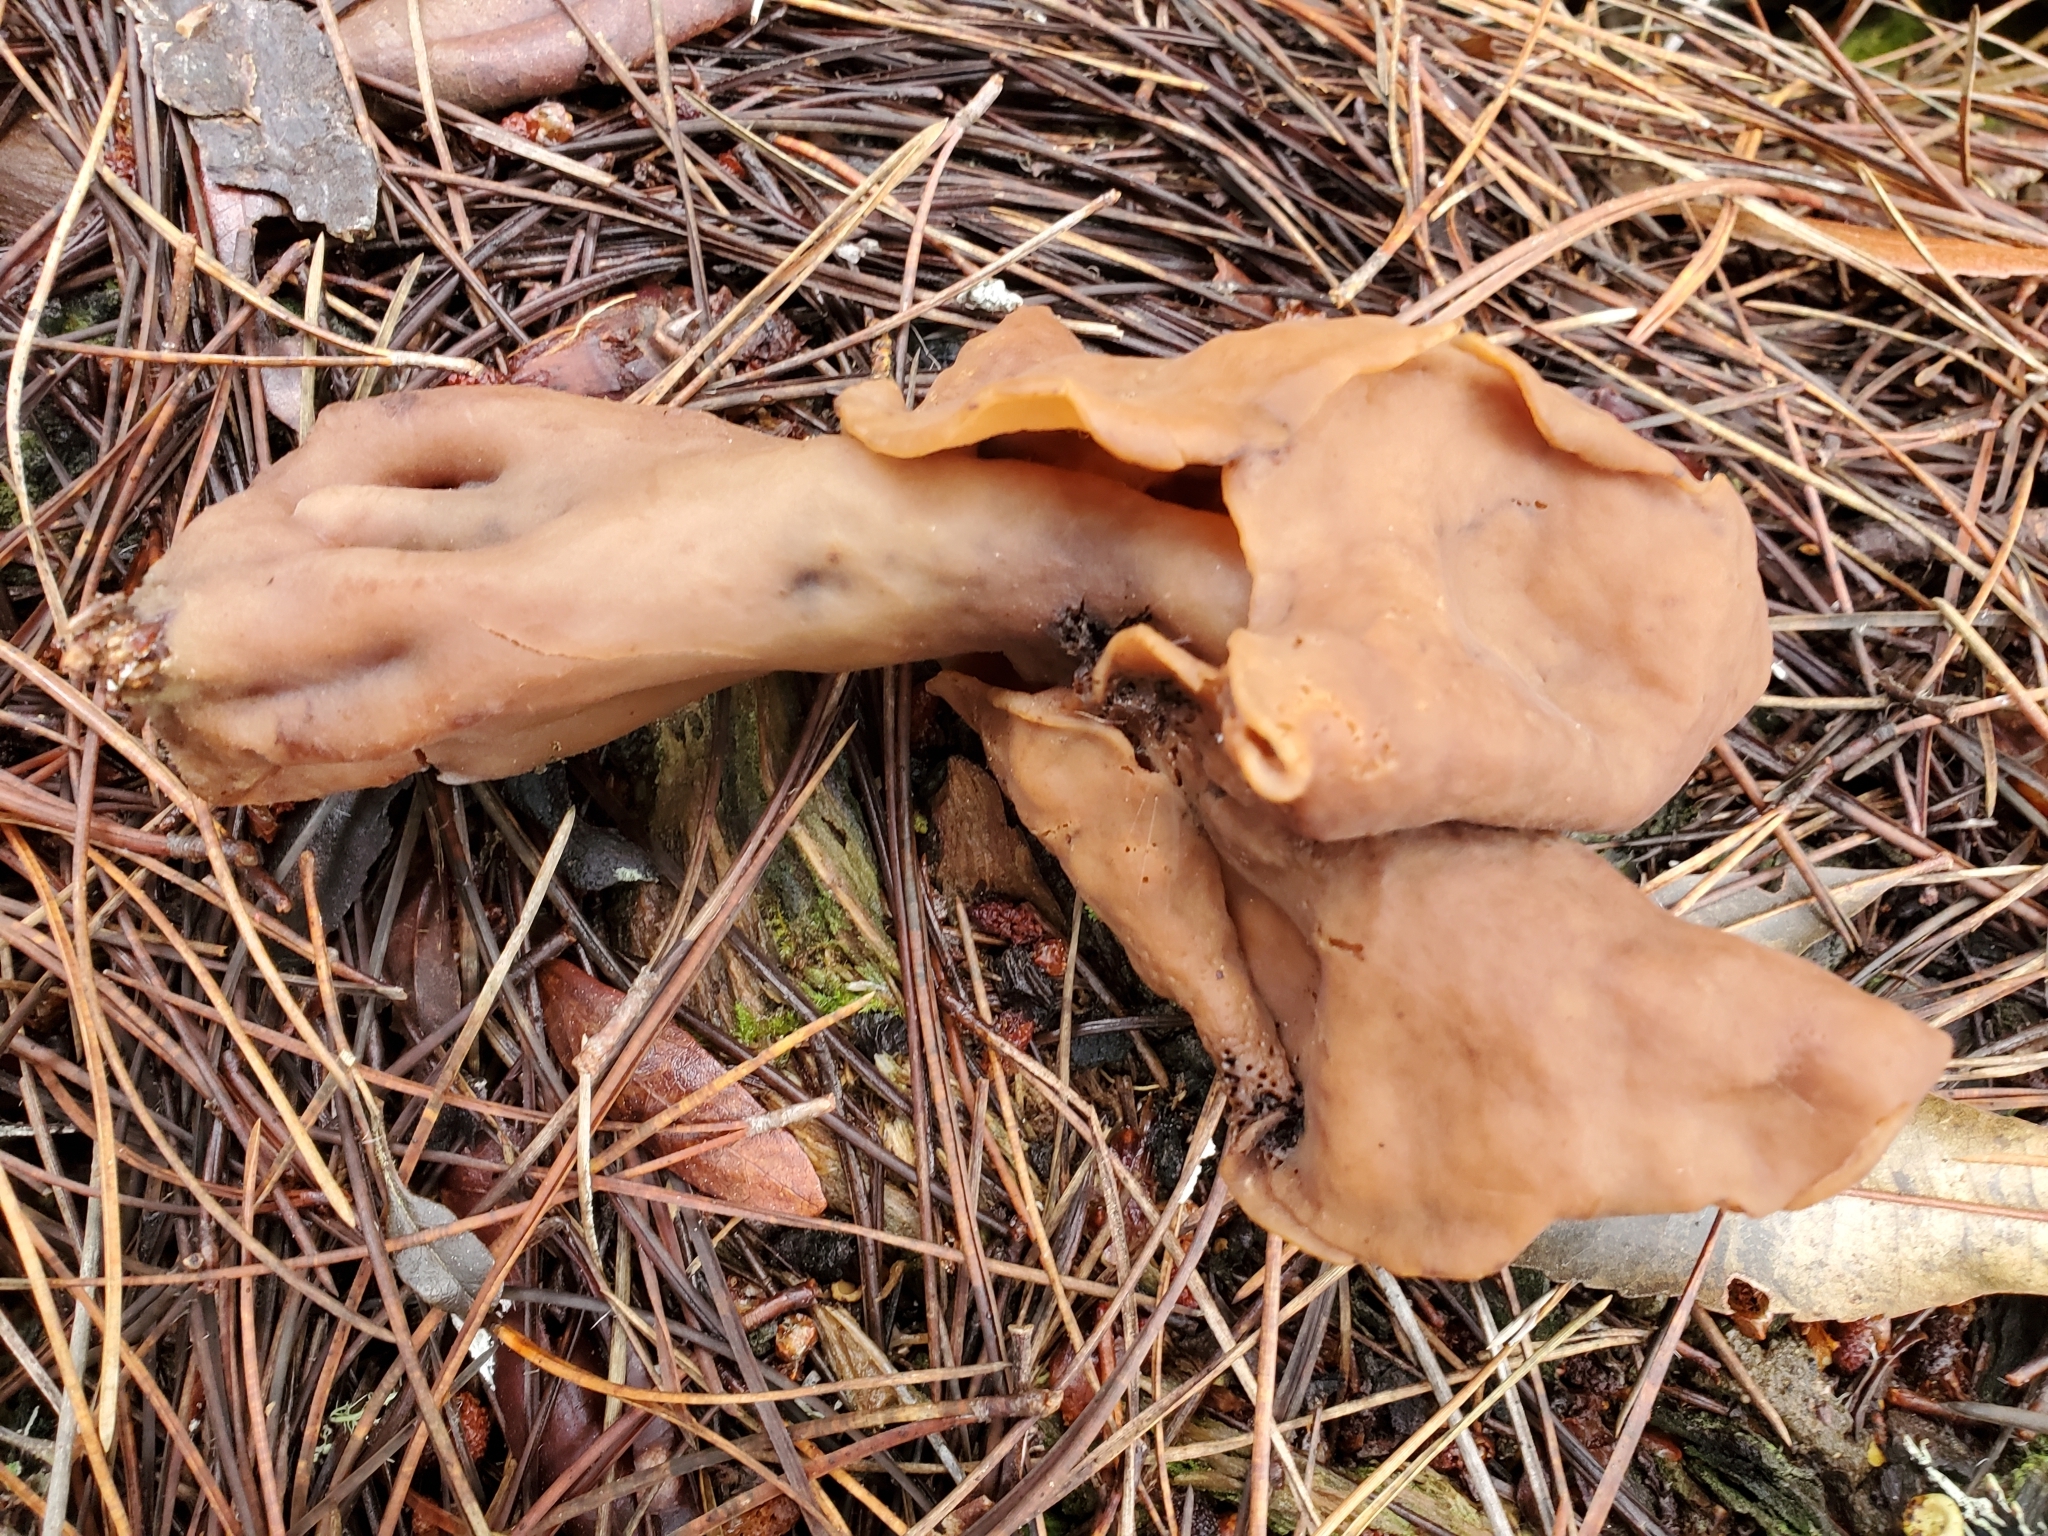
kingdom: Fungi
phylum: Ascomycota
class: Pezizomycetes
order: Pezizales
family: Discinaceae
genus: Gyromitra
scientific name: Gyromitra infula
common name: Pouched false morel
